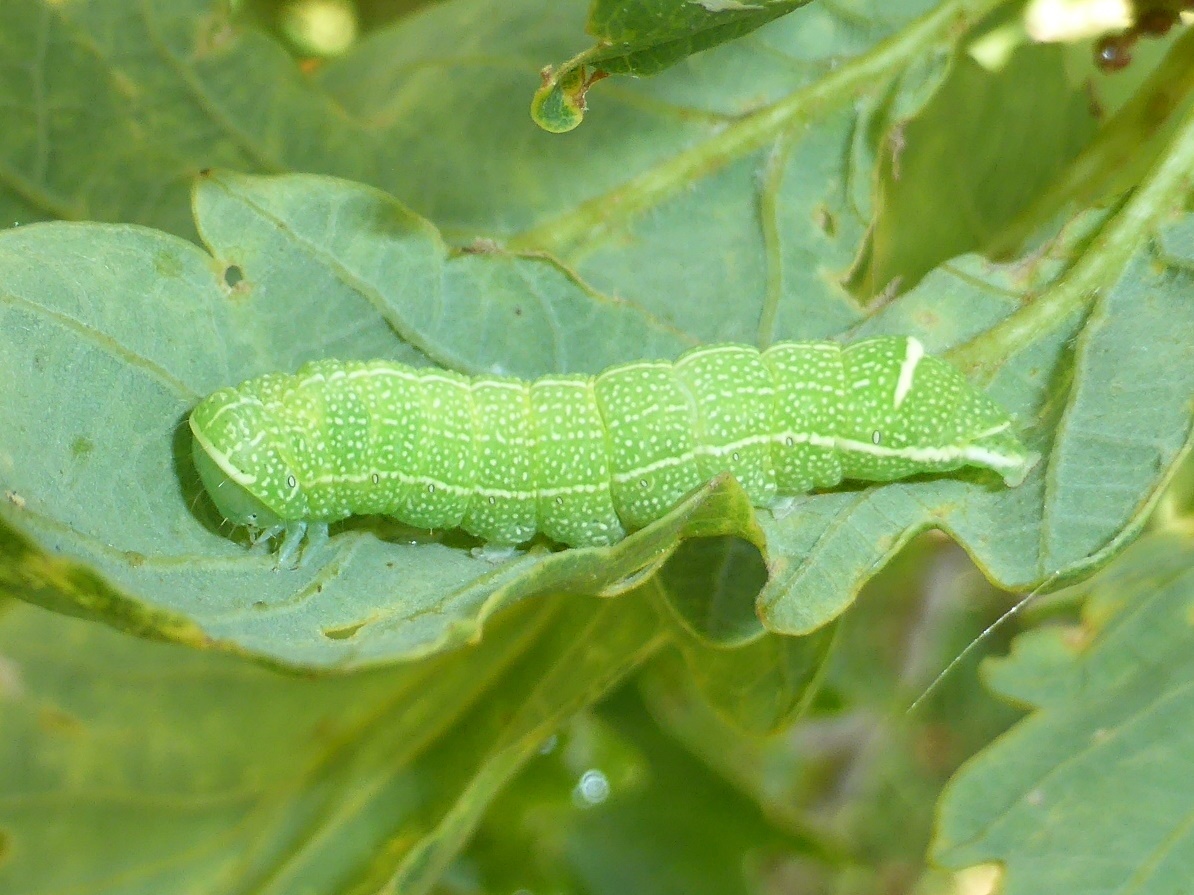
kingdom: Animalia
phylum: Arthropoda
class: Insecta
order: Lepidoptera
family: Noctuidae
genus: Orthosia
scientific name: Orthosia cerasi
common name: Common quaker
